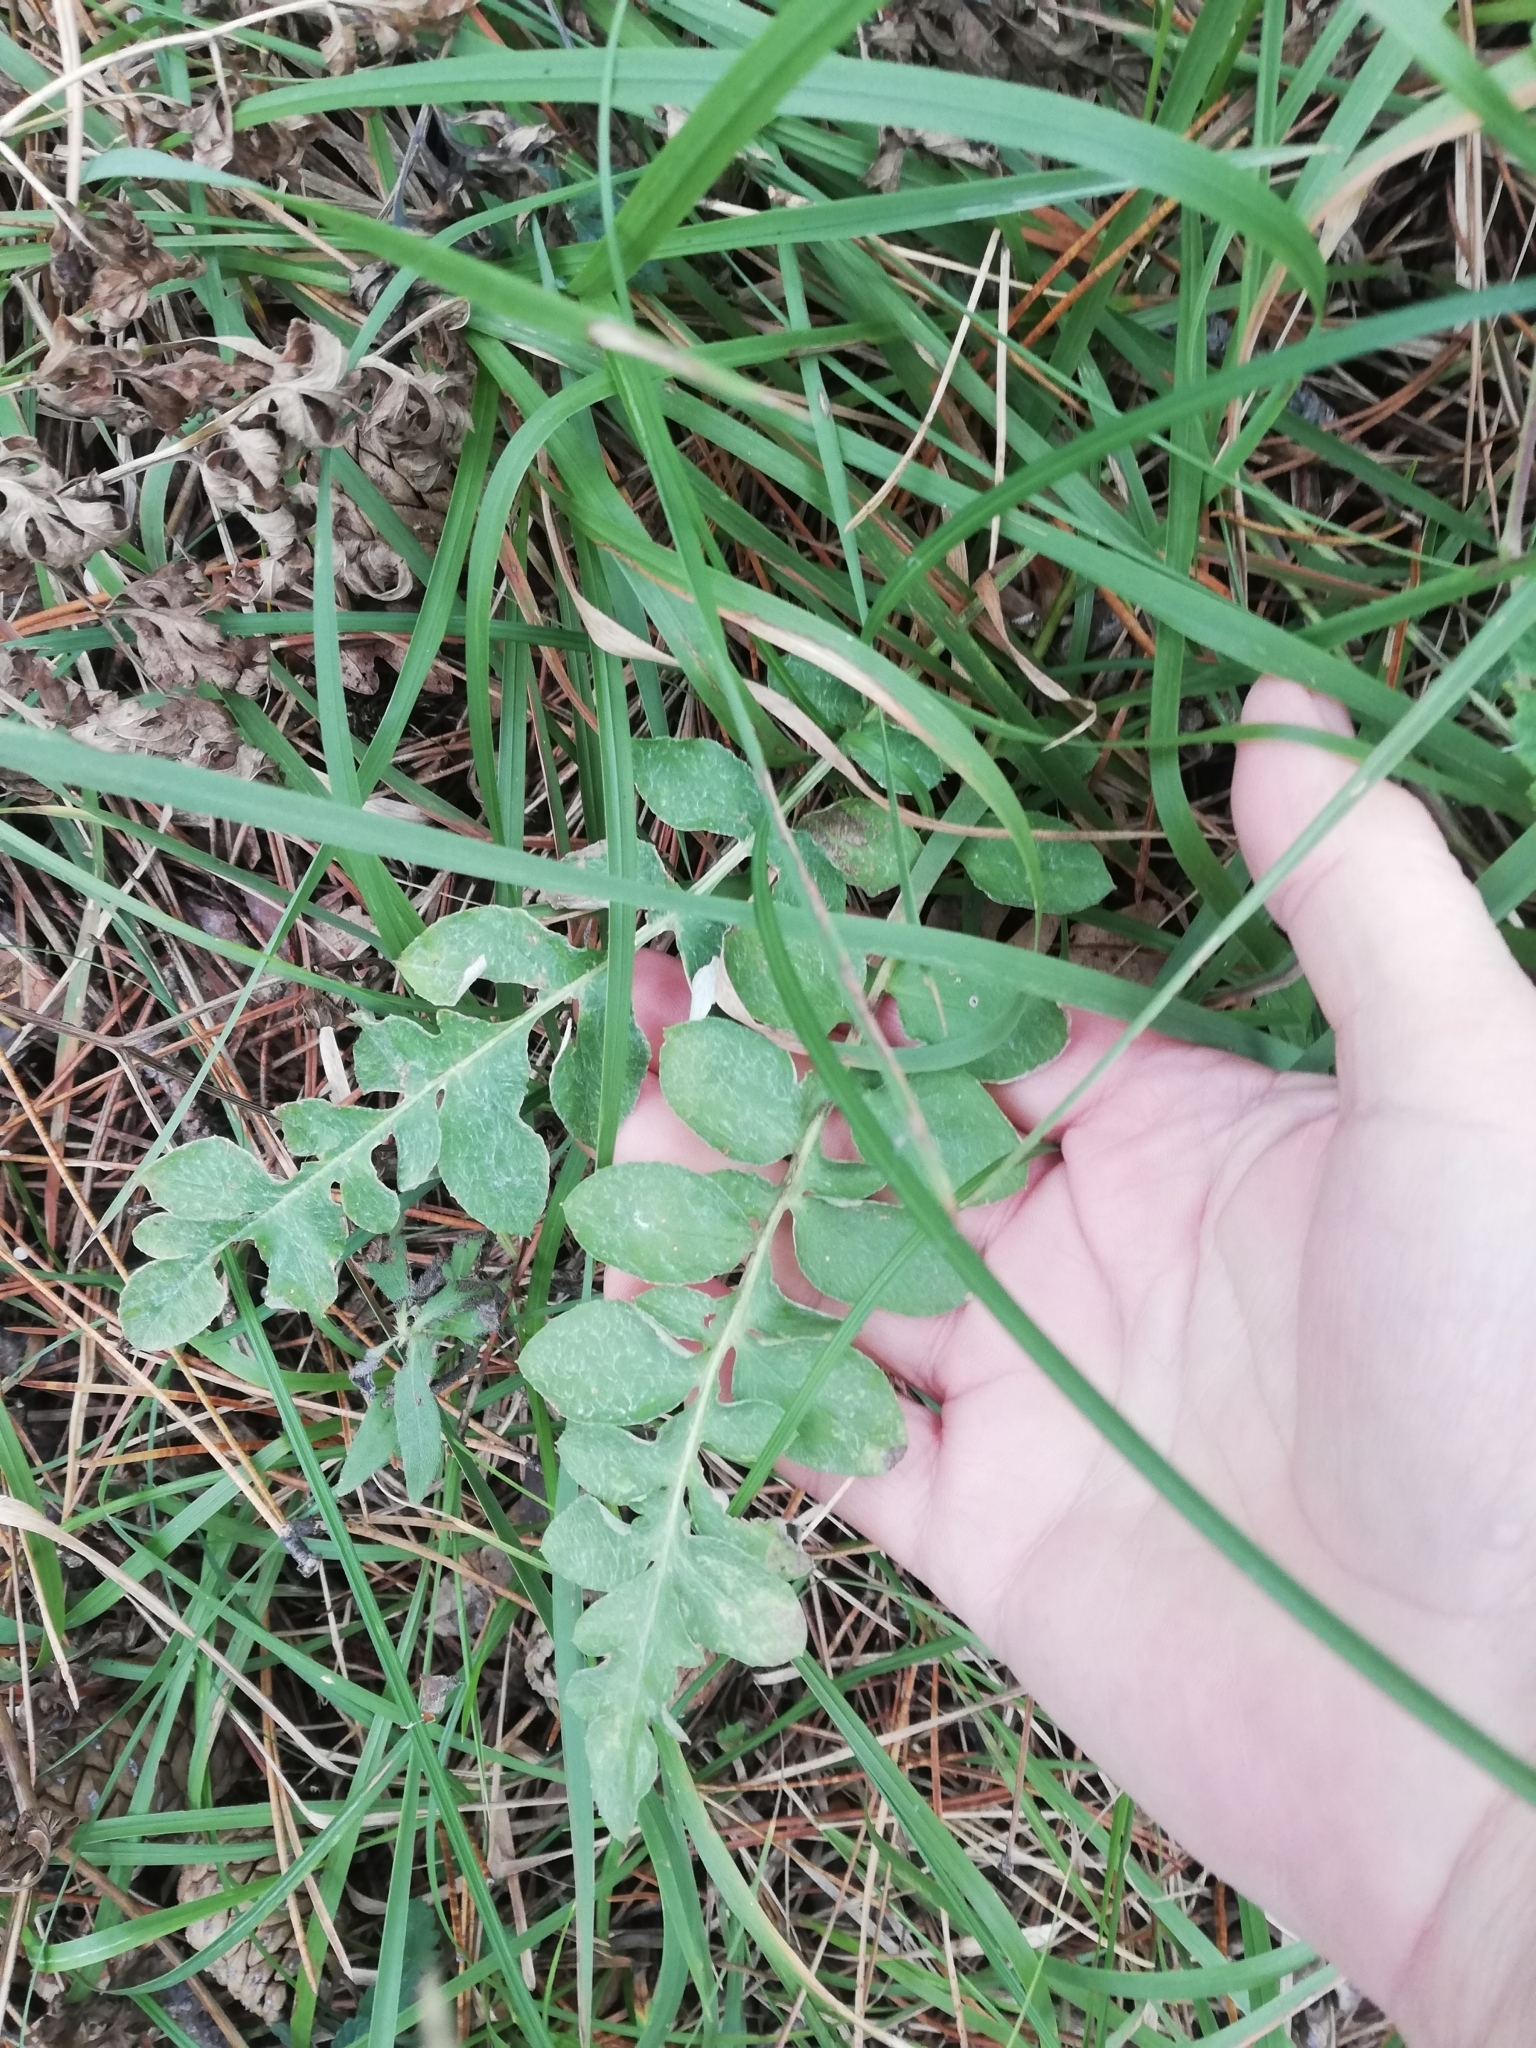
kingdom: Plantae
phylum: Tracheophyta
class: Magnoliopsida
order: Asterales
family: Asteraceae
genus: Psephellus
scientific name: Psephellus declinatus
